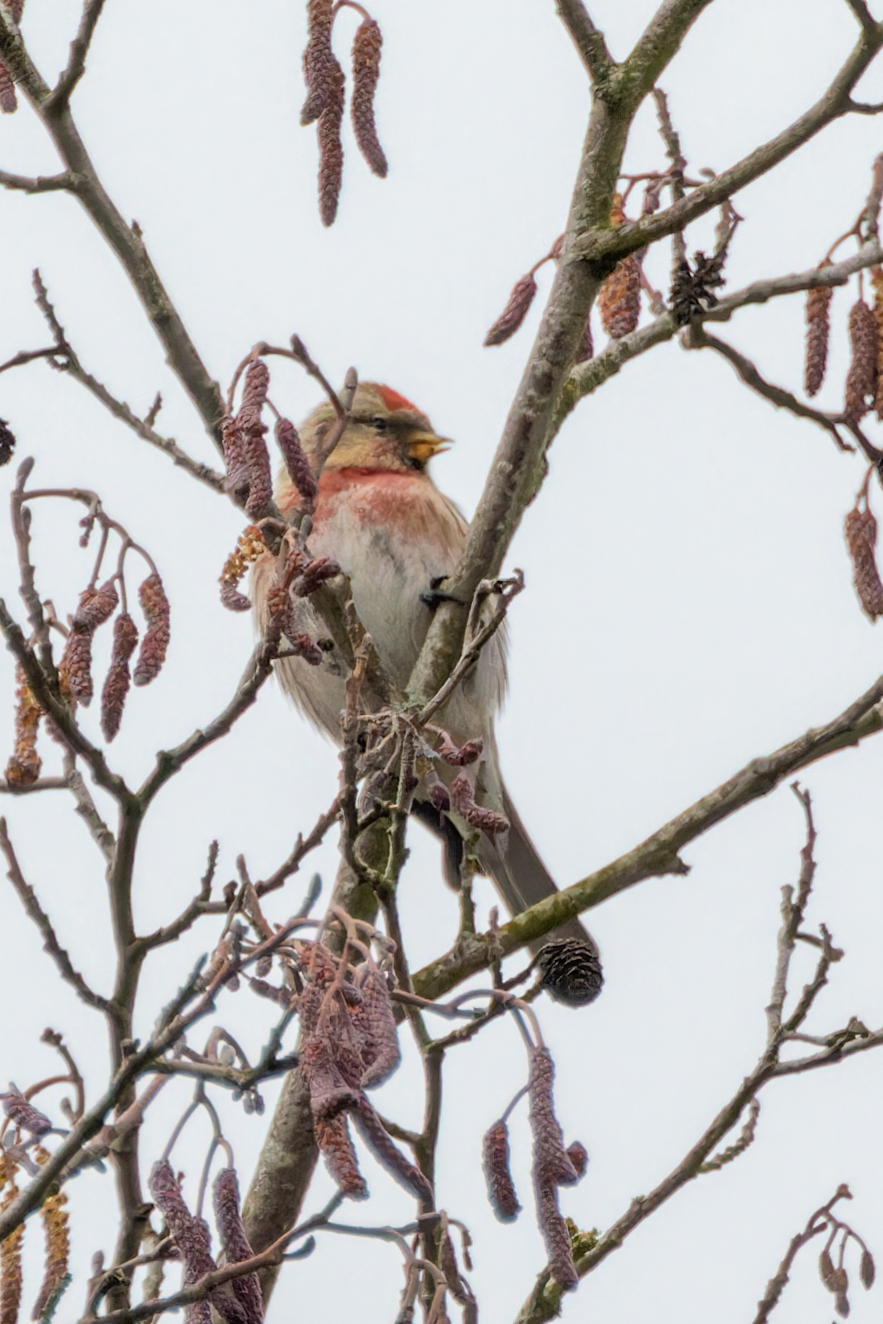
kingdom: Animalia
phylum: Chordata
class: Aves
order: Passeriformes
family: Fringillidae
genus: Acanthis
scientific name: Acanthis flammea
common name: Common redpoll
